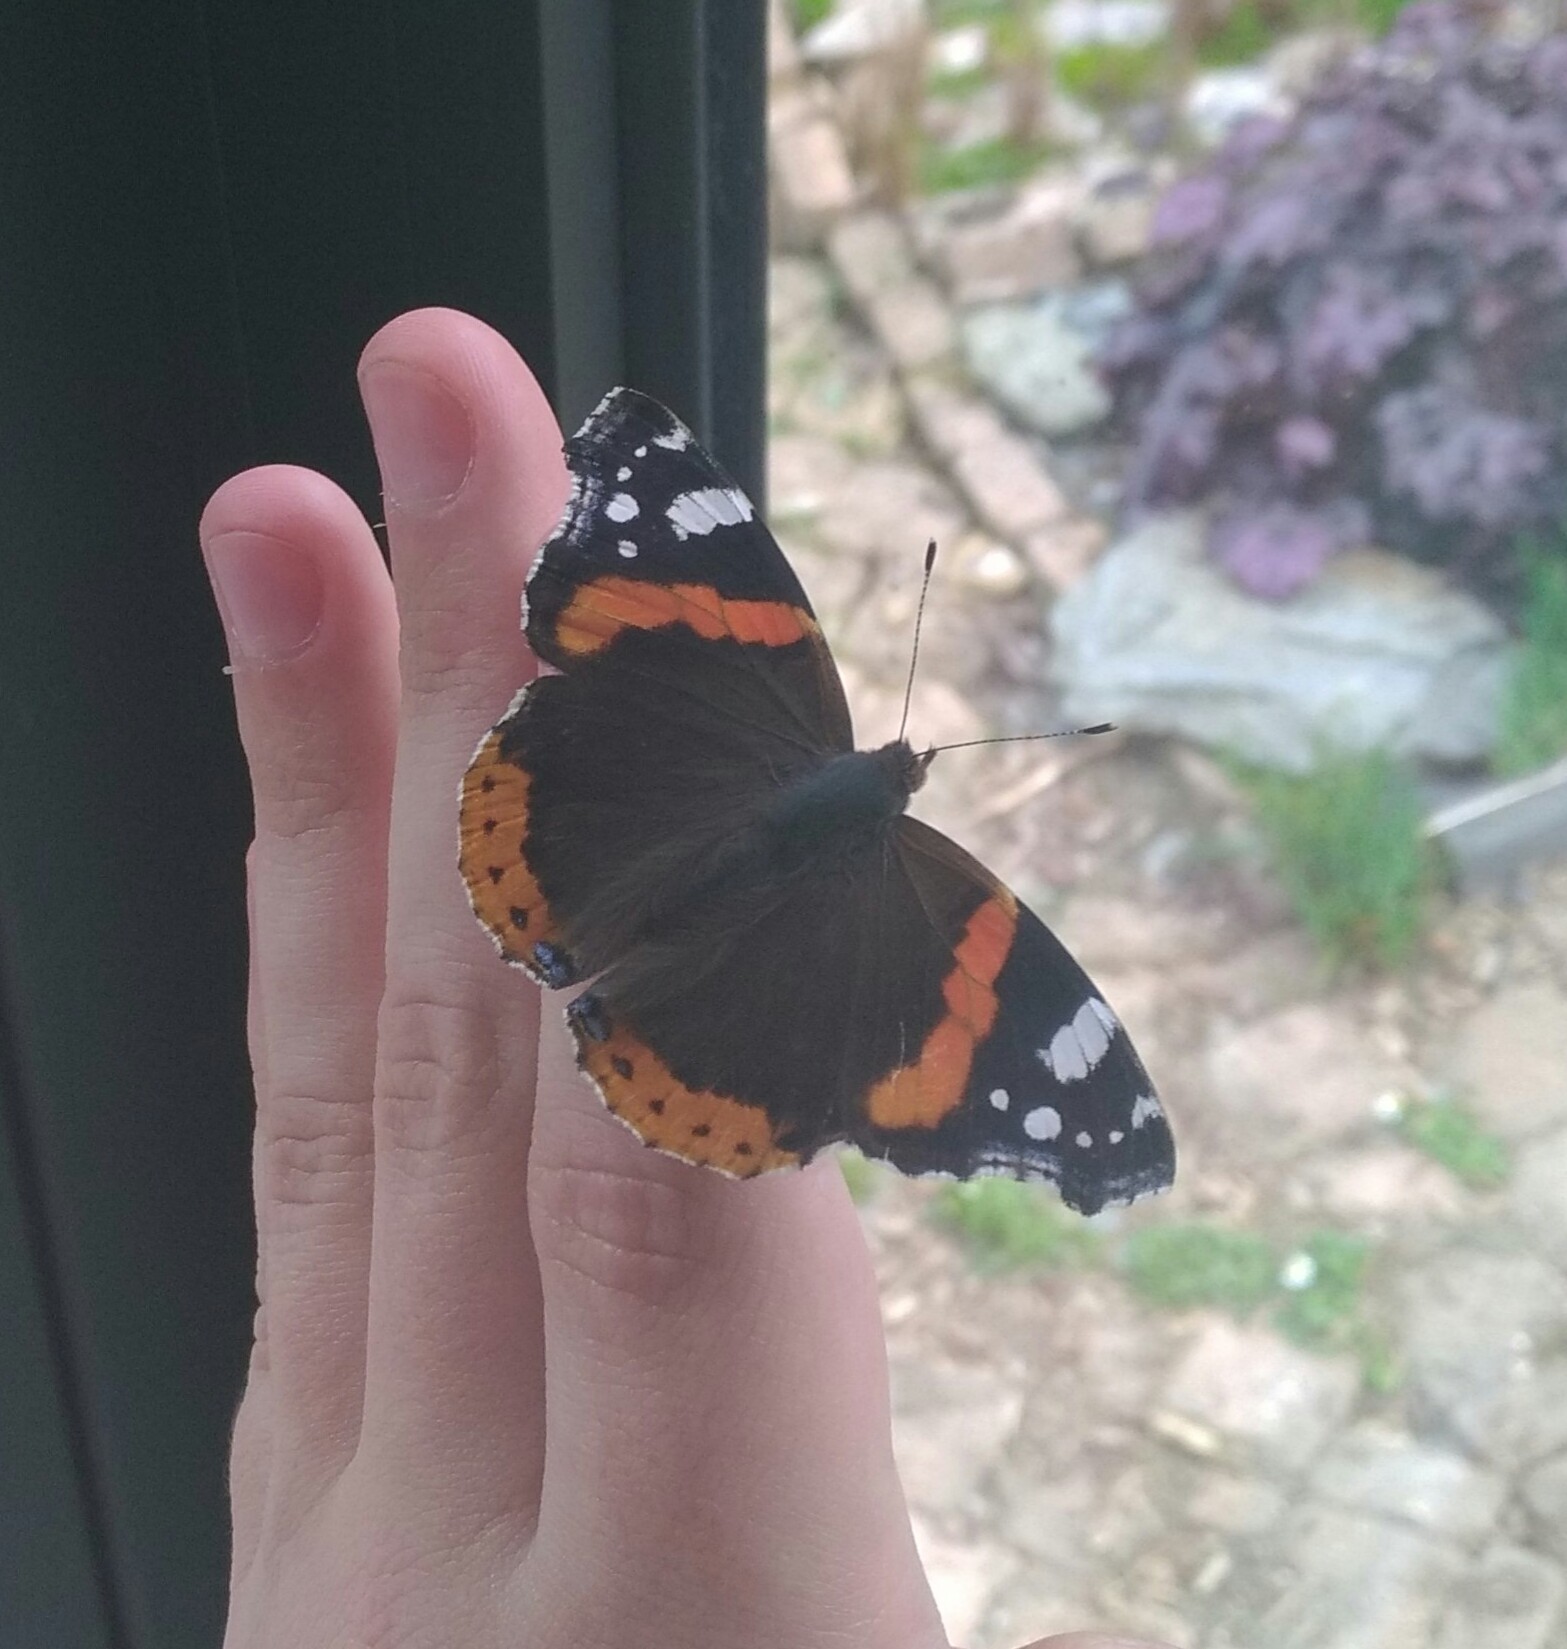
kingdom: Animalia
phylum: Arthropoda
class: Insecta
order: Lepidoptera
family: Nymphalidae
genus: Vanessa
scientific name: Vanessa atalanta
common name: Red admiral
